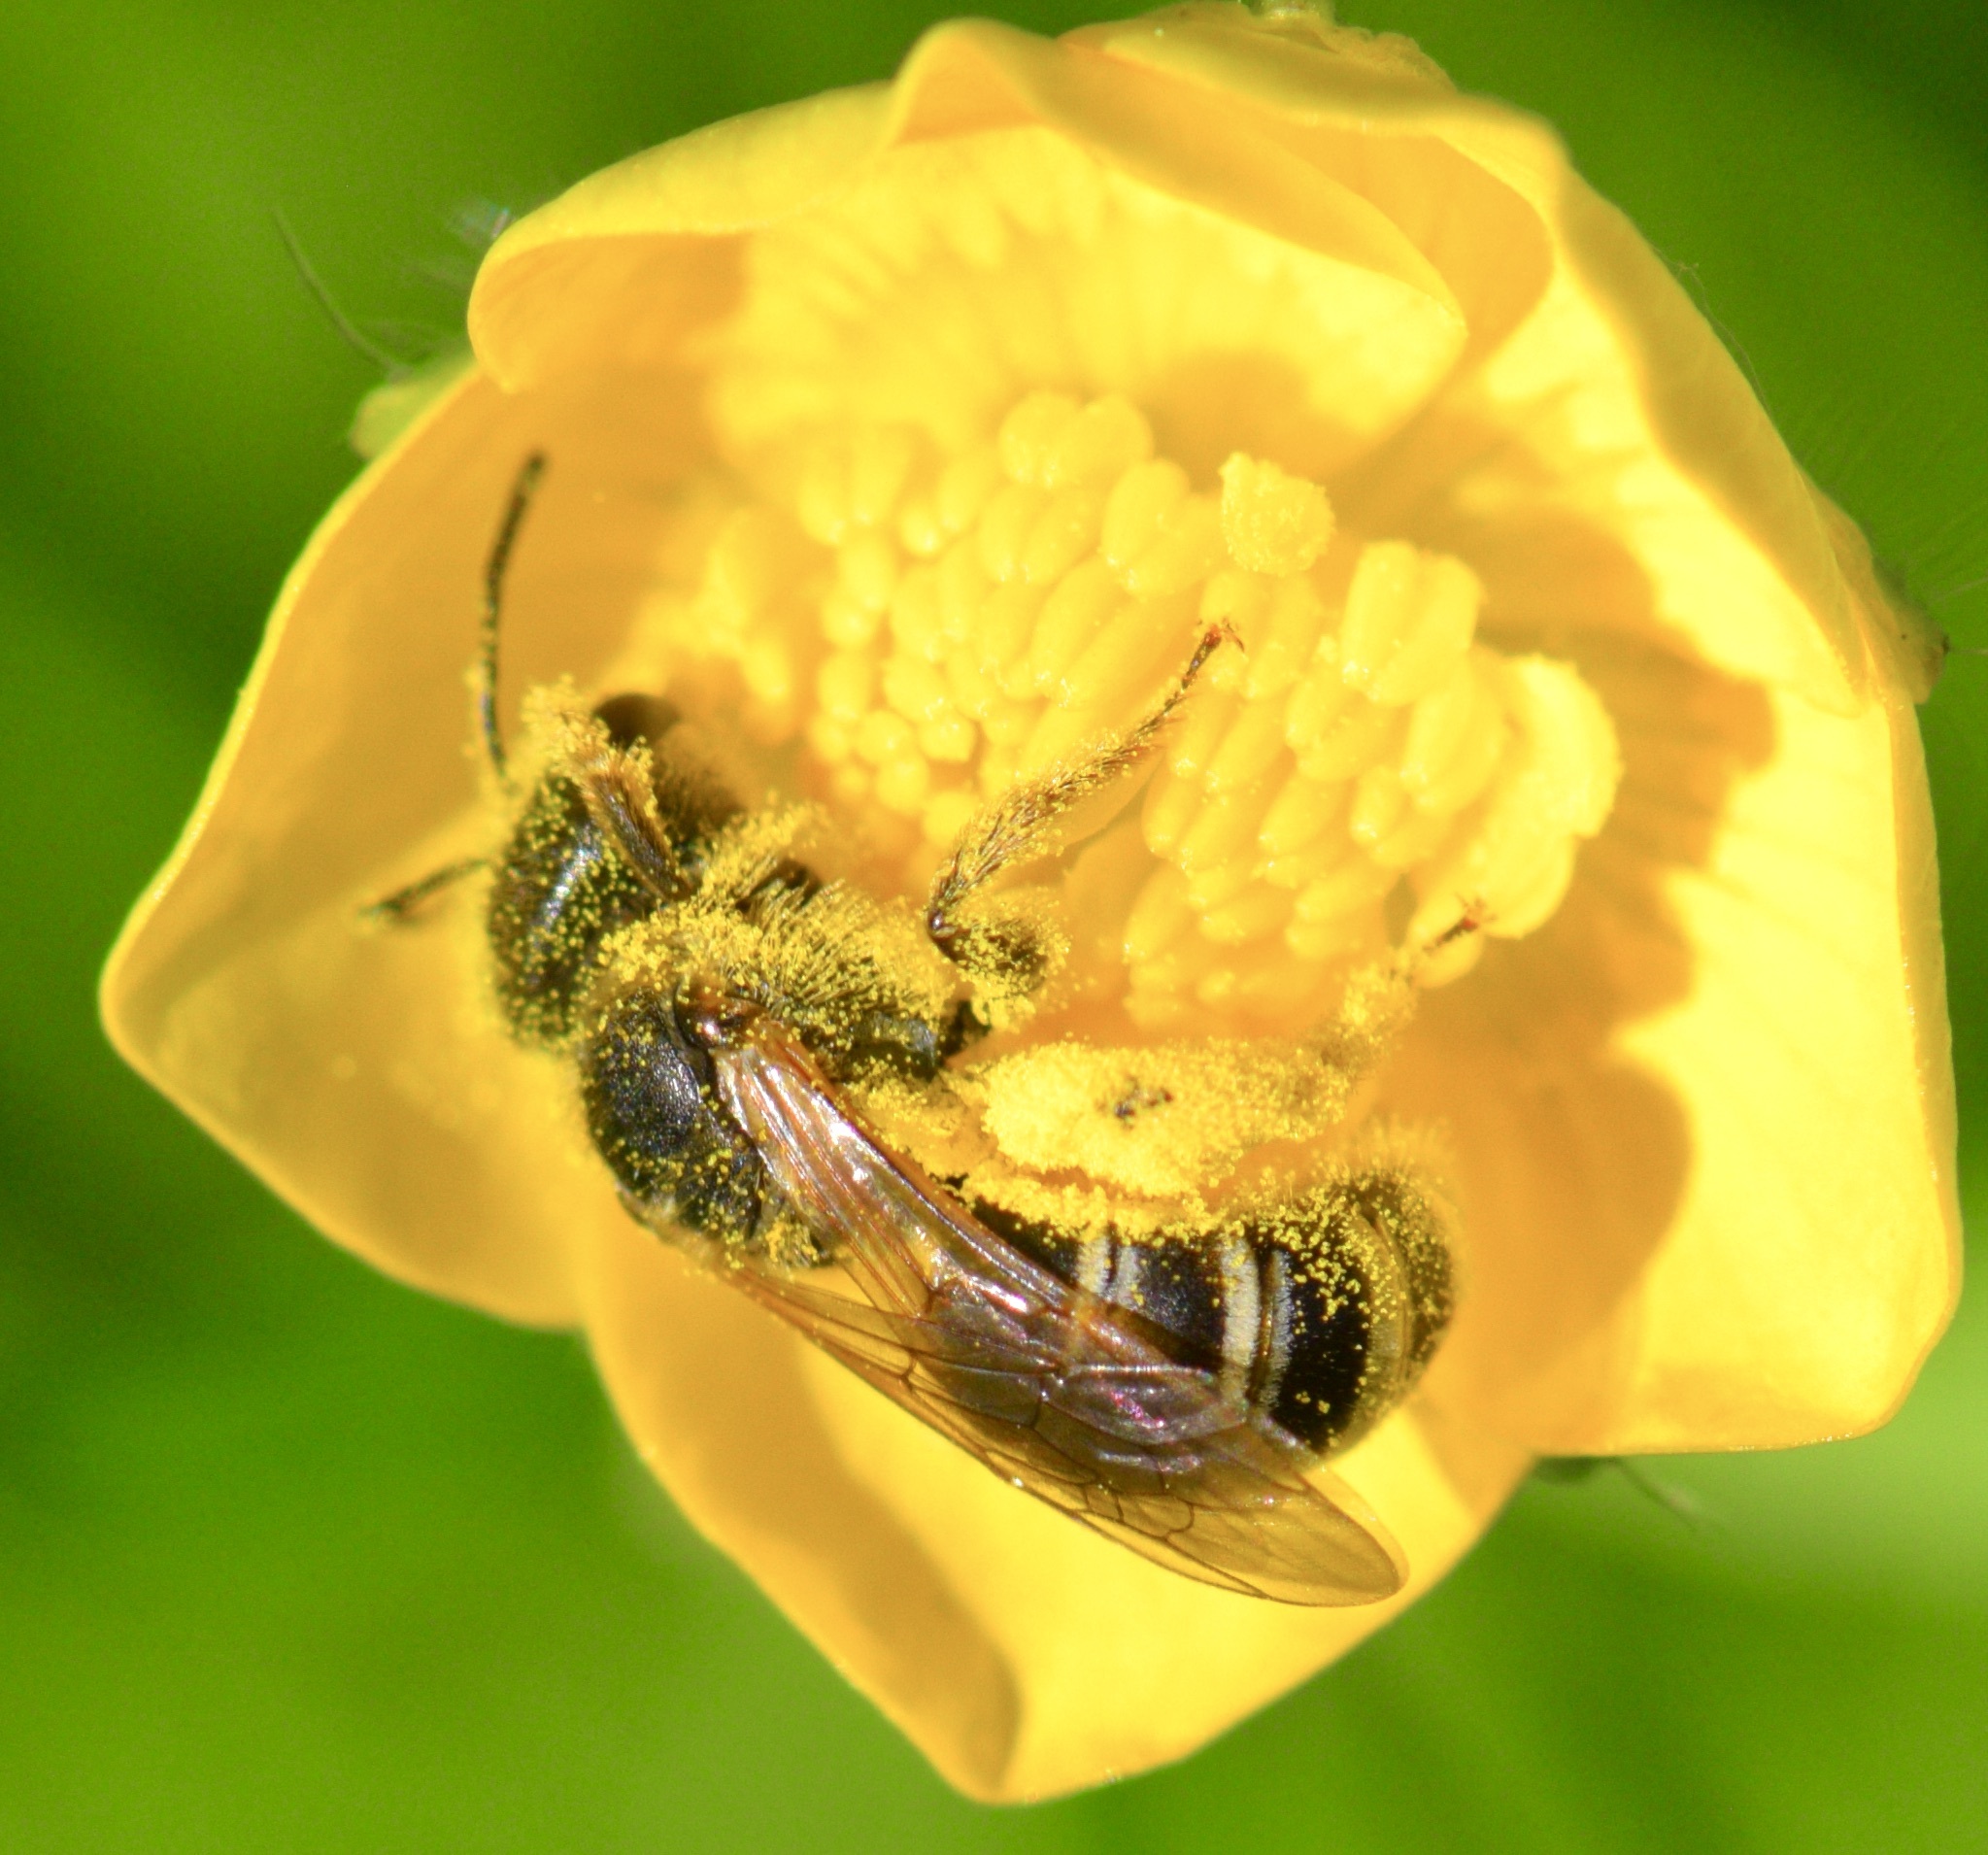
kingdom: Animalia
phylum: Arthropoda
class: Insecta
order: Hymenoptera
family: Halictidae
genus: Halictus
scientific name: Halictus ligatus
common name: Ligated furrow bee
